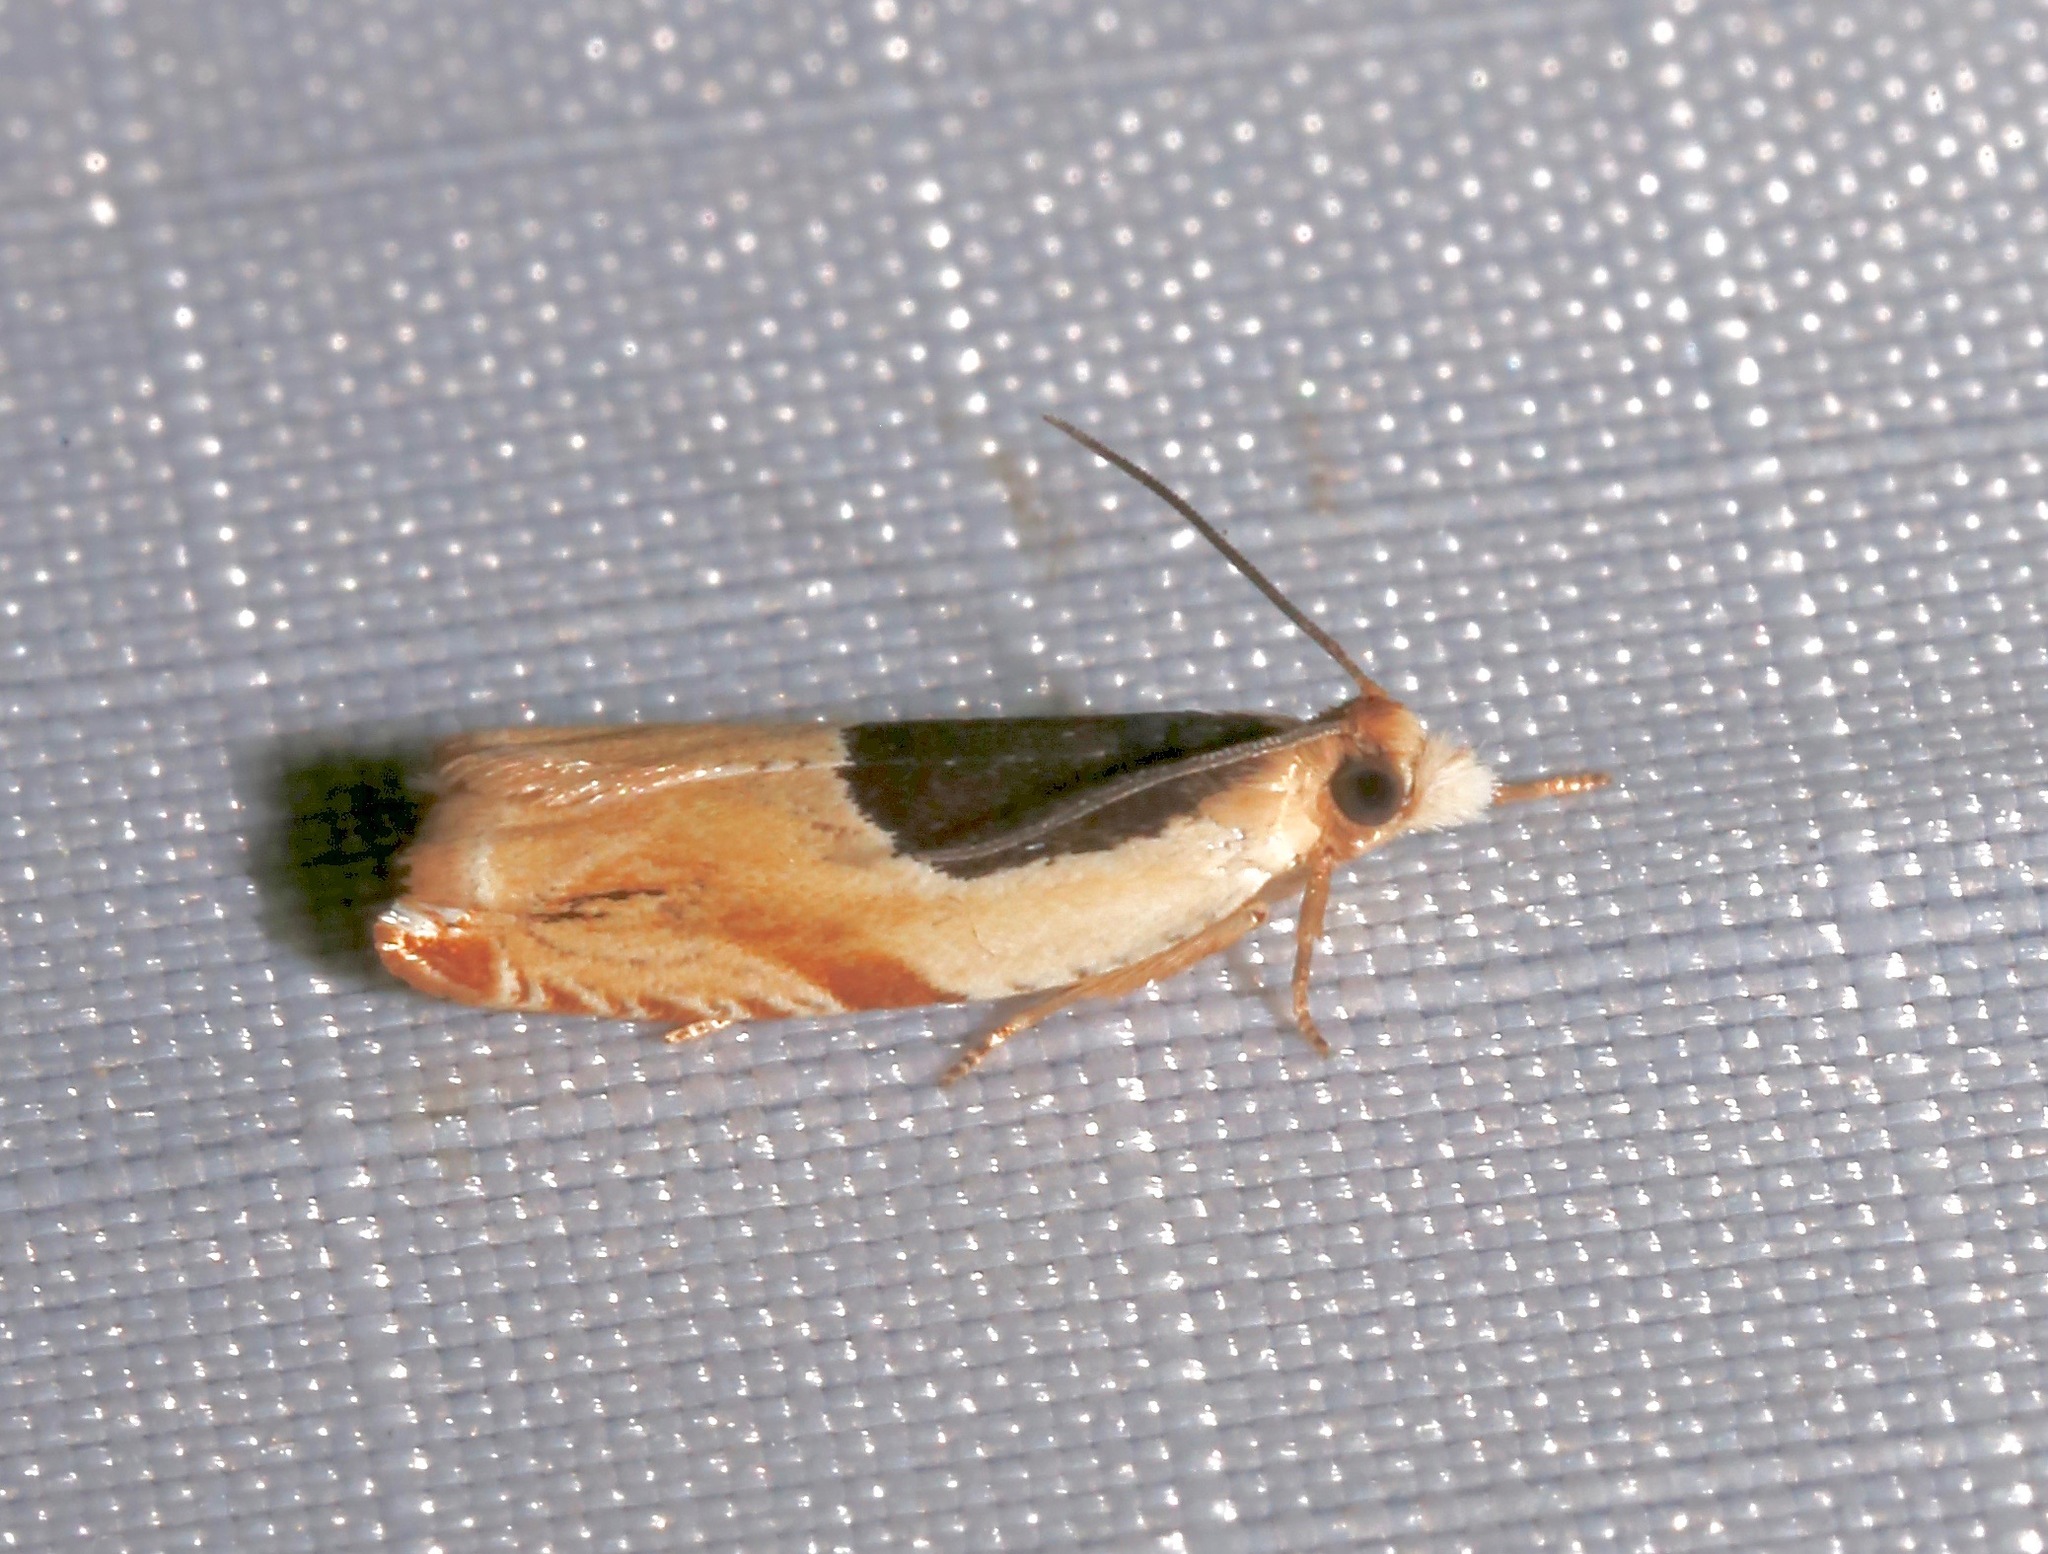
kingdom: Animalia
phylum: Arthropoda
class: Insecta
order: Lepidoptera
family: Tortricidae
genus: Ancylis
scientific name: Ancylis burgessiana
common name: Oak leaffolder moth
